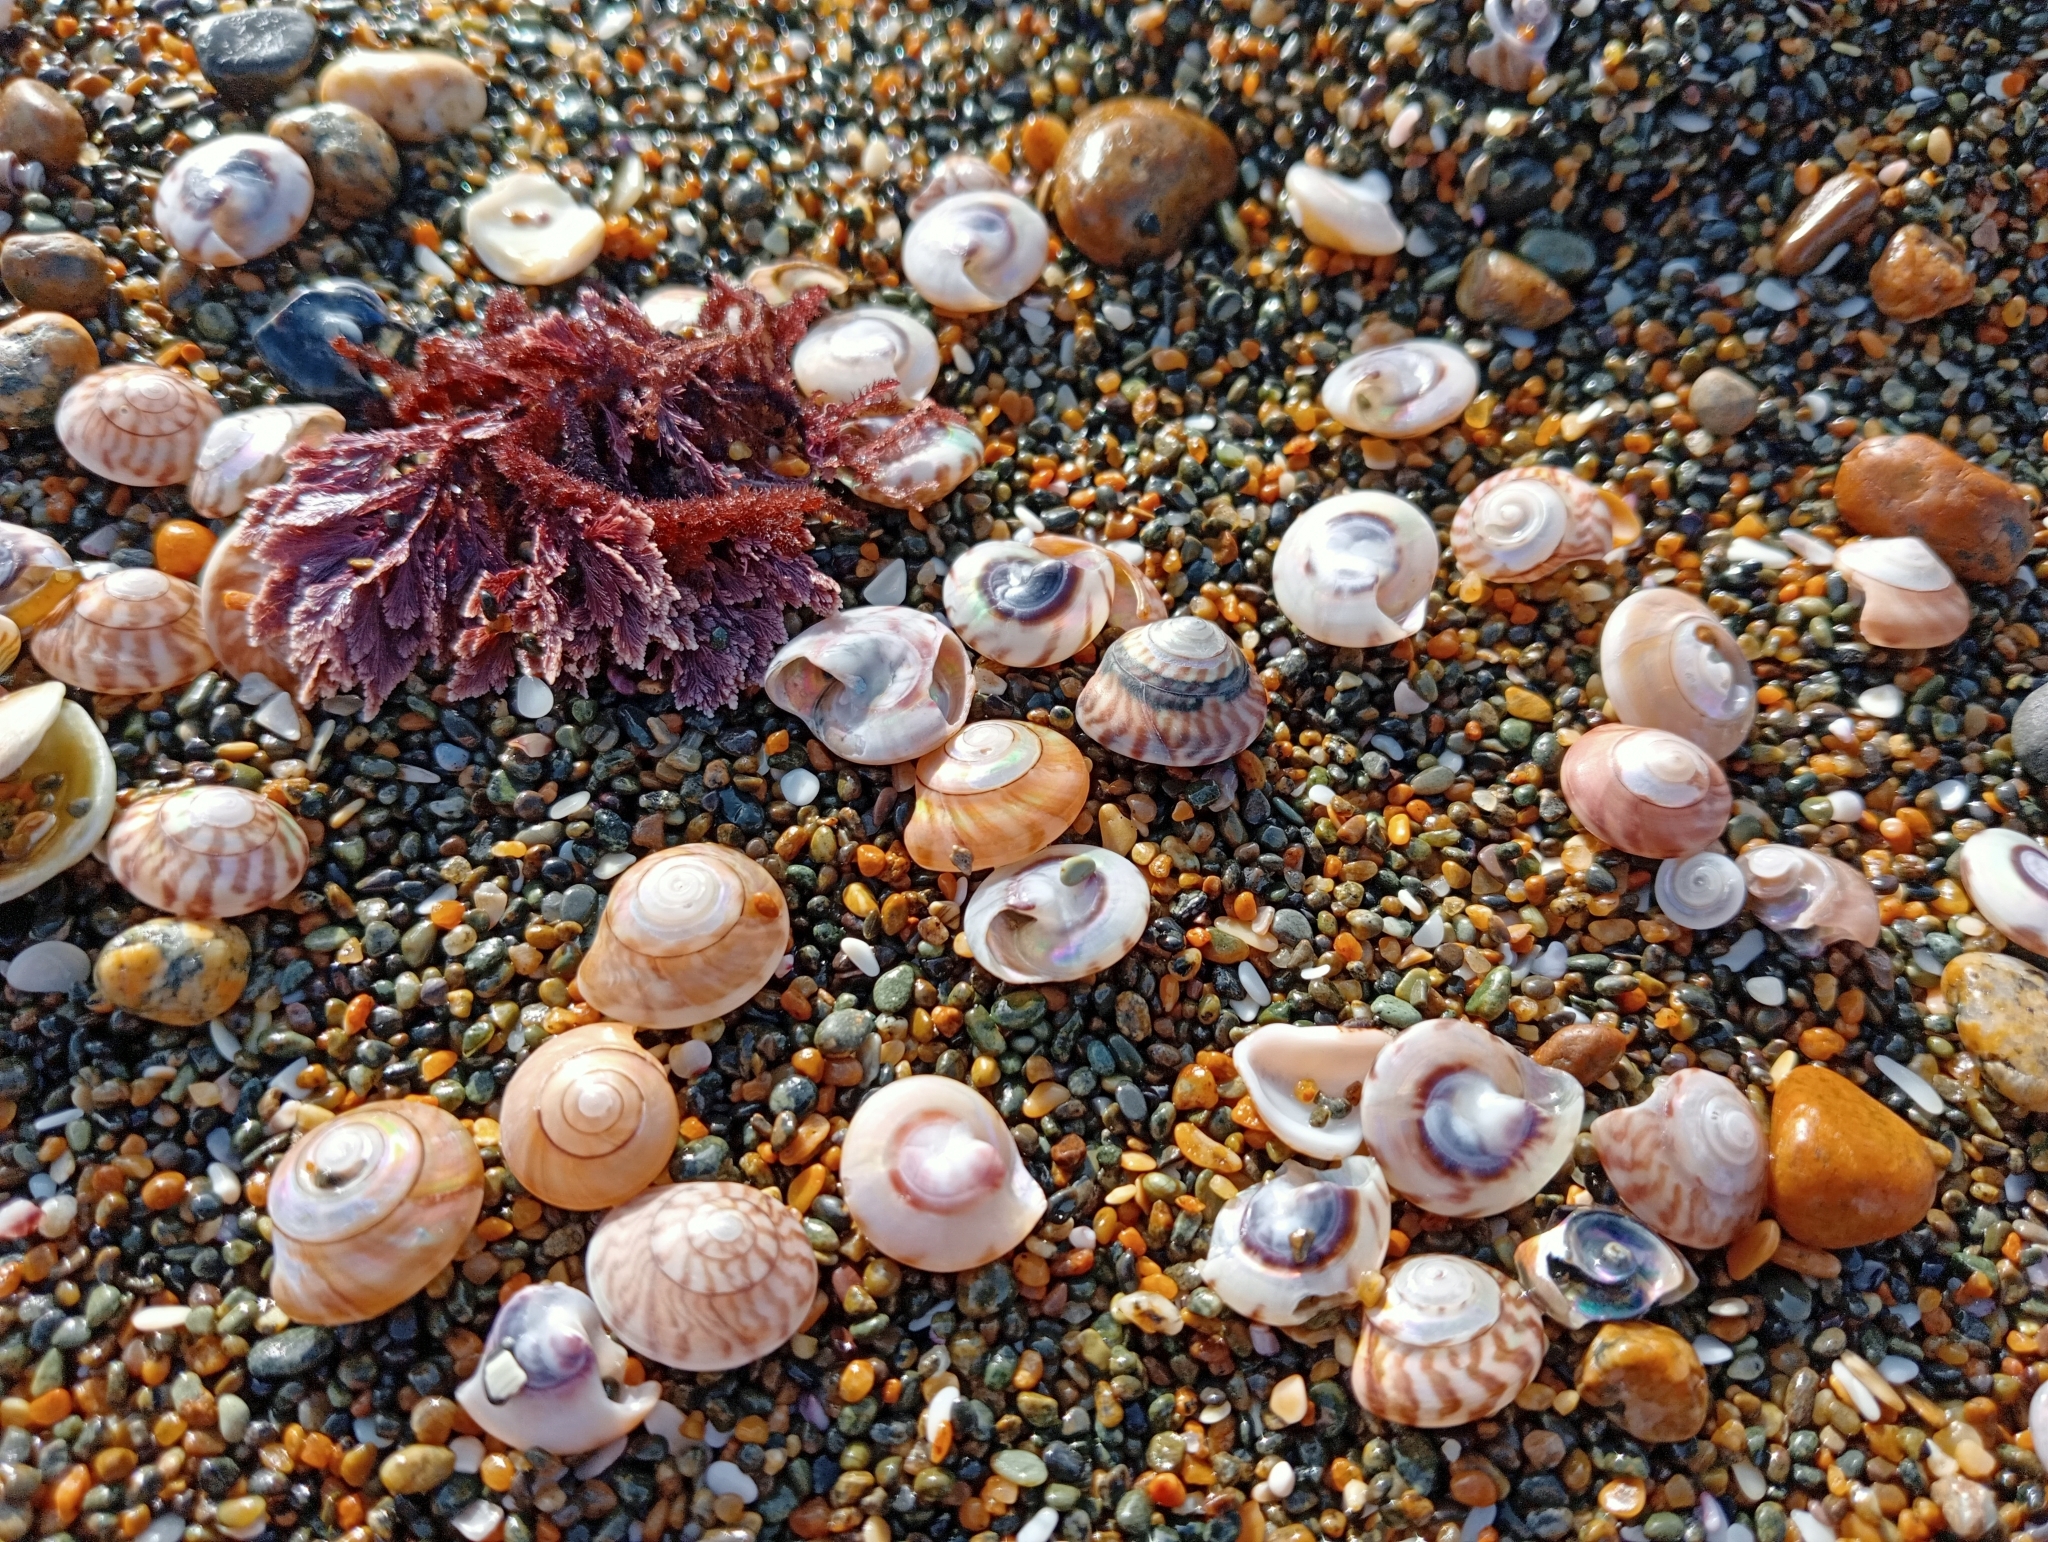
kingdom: Animalia
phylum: Mollusca
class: Gastropoda
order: Trochida
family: Trochidae
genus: Zethalia
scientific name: Zethalia zelandica
